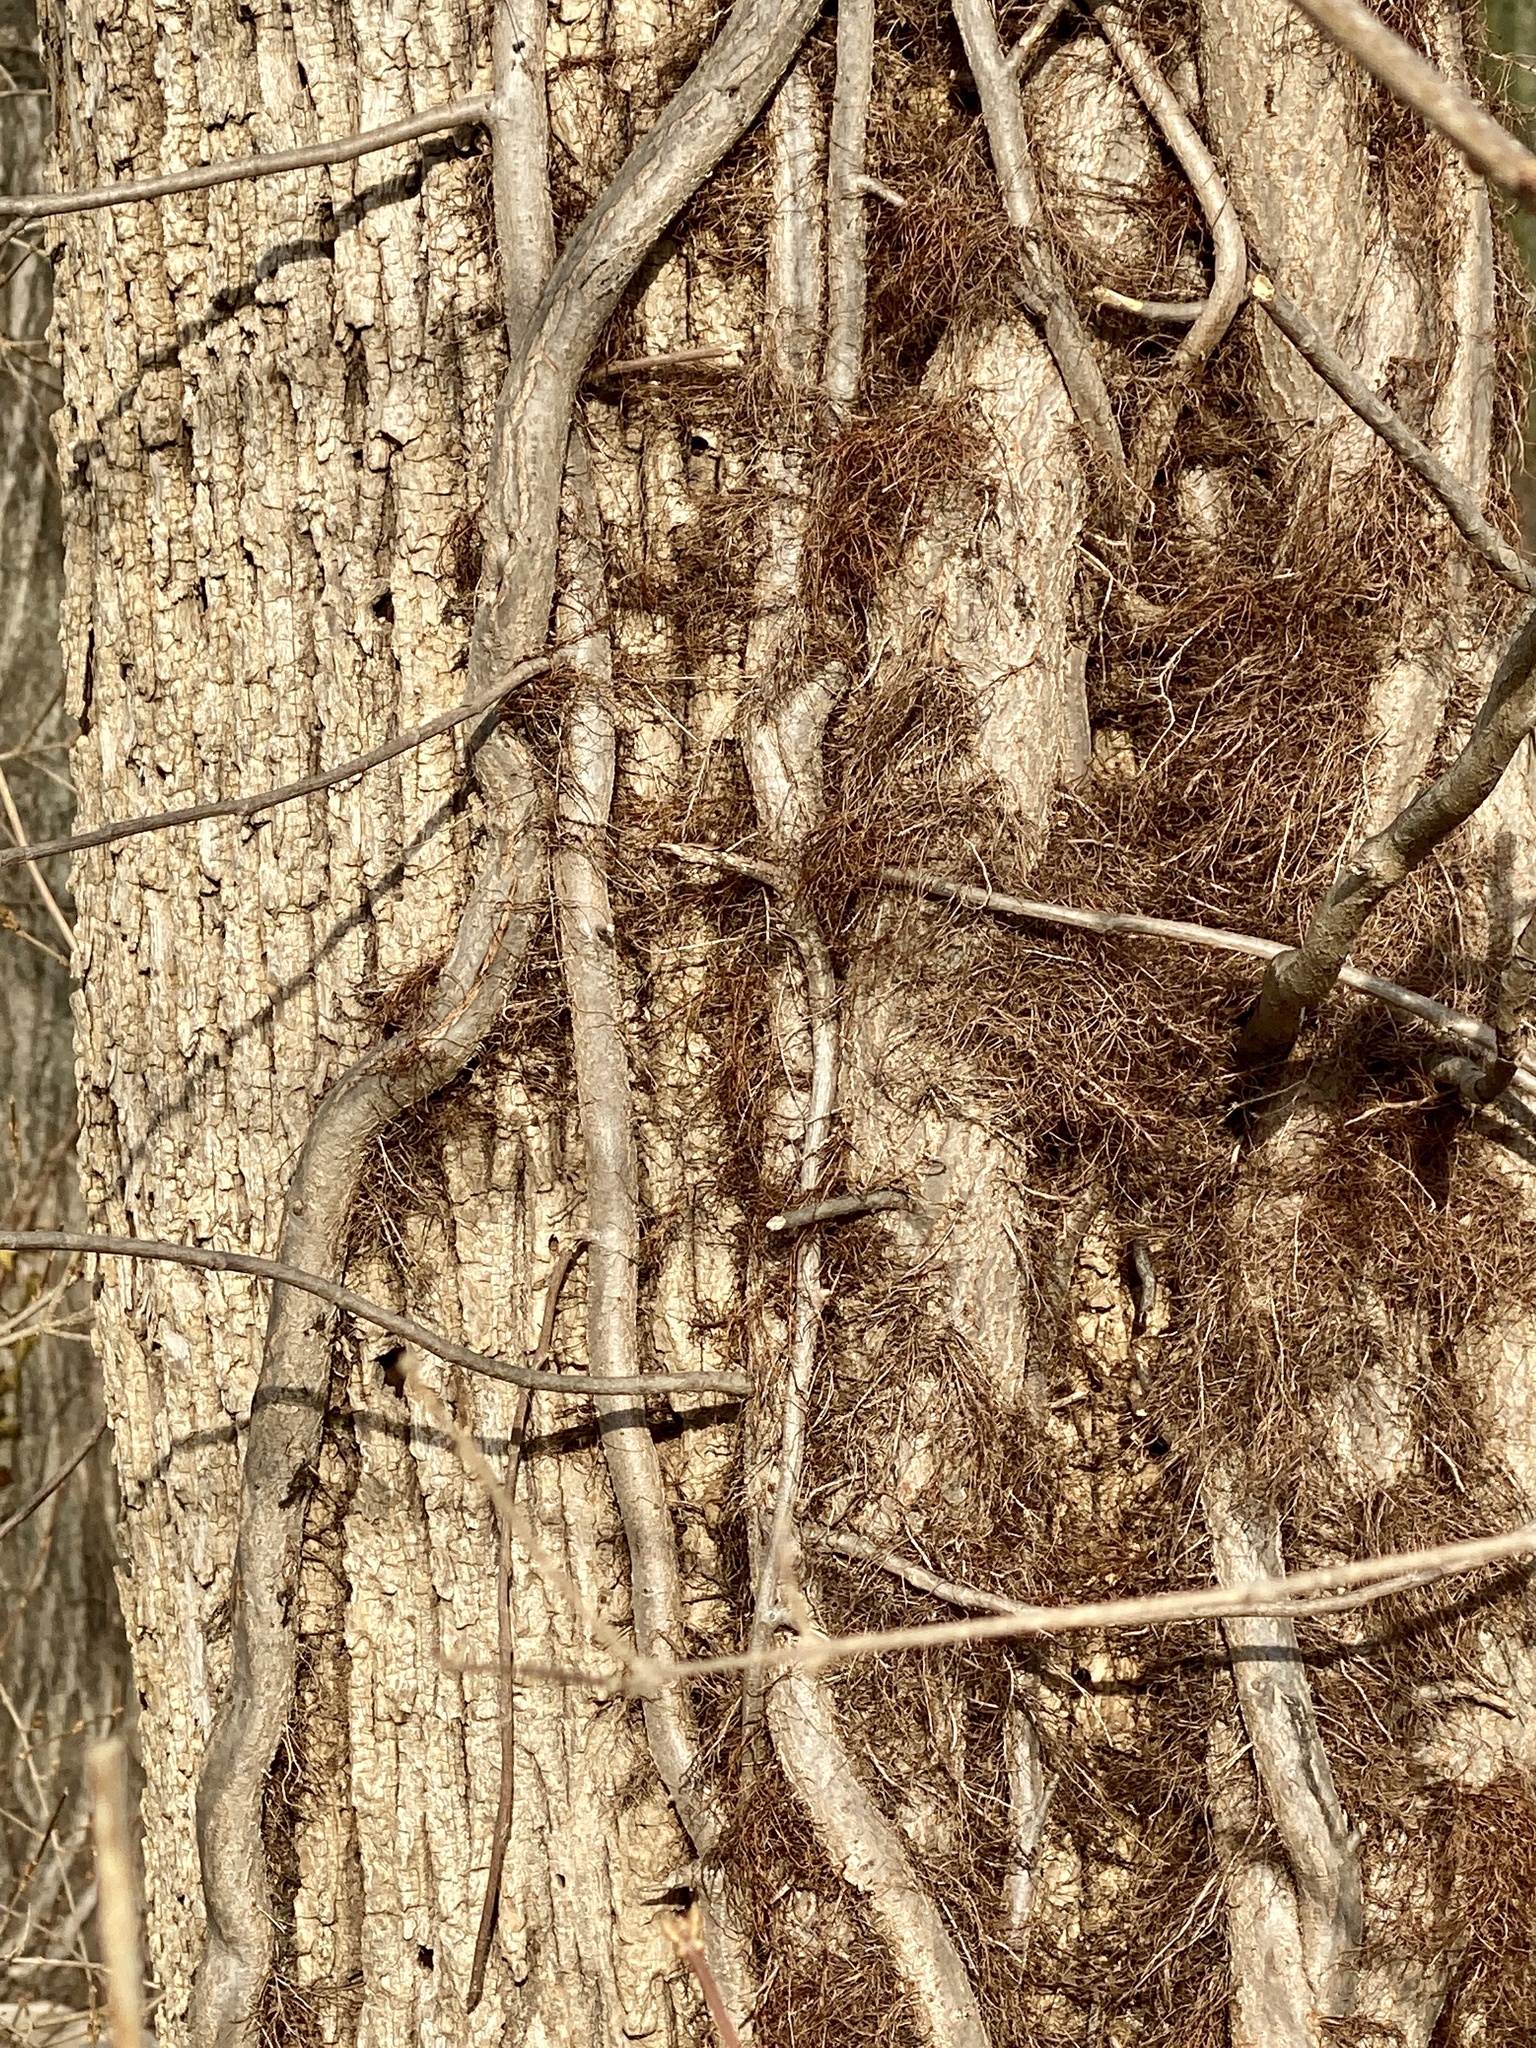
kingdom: Plantae
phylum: Tracheophyta
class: Magnoliopsida
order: Sapindales
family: Anacardiaceae
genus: Toxicodendron
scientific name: Toxicodendron radicans
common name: Poison ivy
